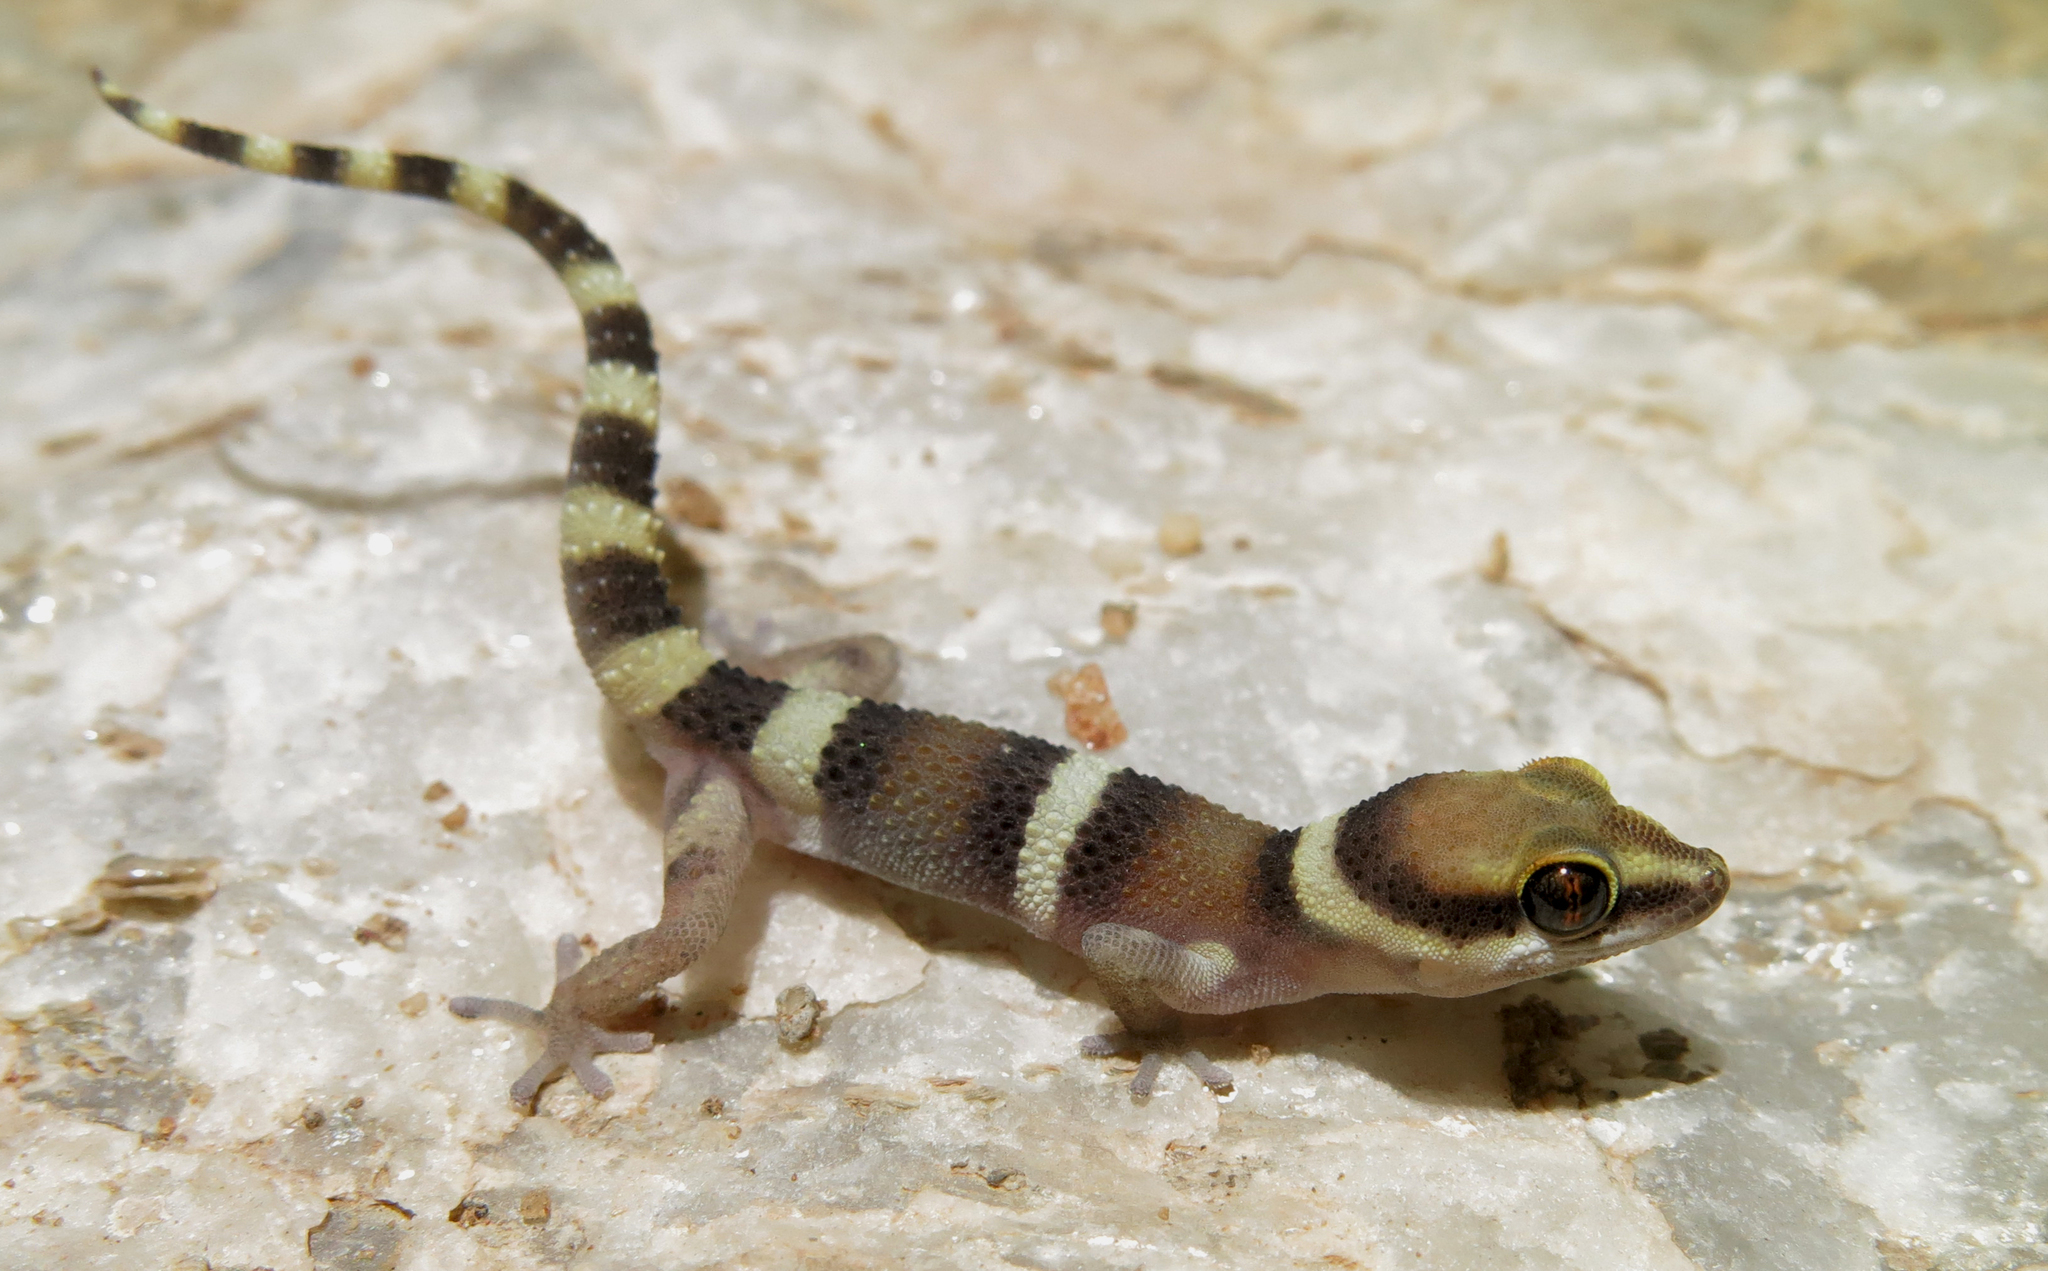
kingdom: Animalia
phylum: Chordata
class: Squamata
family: Gekkonidae
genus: Pachydactylus
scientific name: Pachydactylus atorquatus
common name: Augrabies gecko
